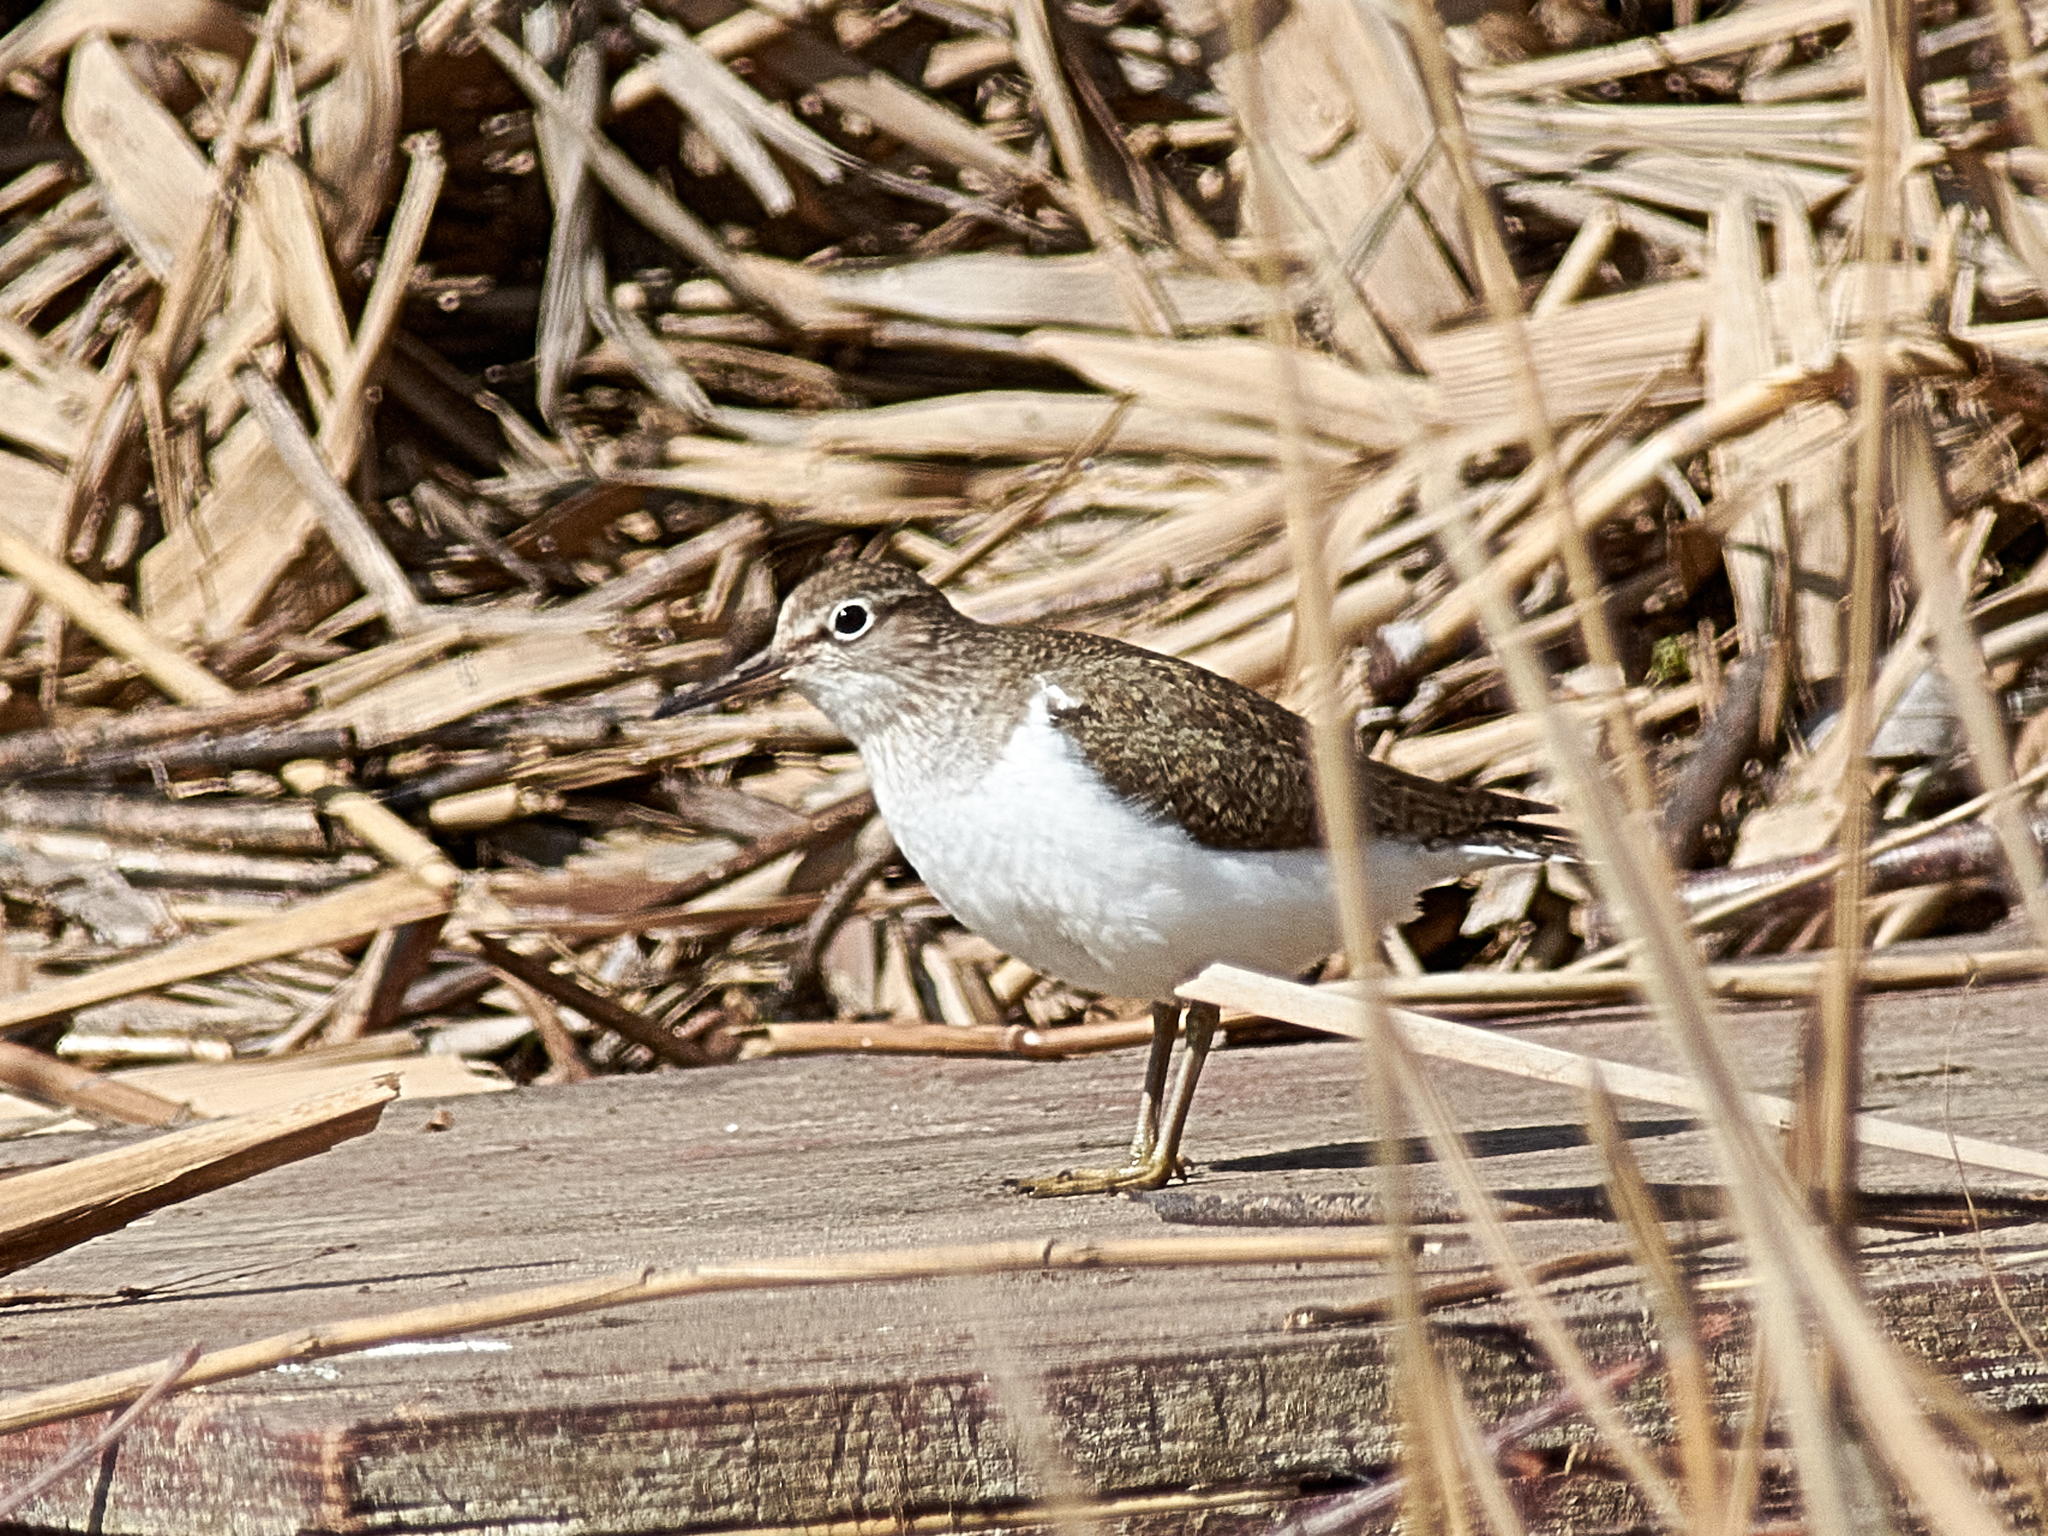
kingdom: Animalia
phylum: Chordata
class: Aves
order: Charadriiformes
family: Scolopacidae
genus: Actitis
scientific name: Actitis hypoleucos
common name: Common sandpiper
